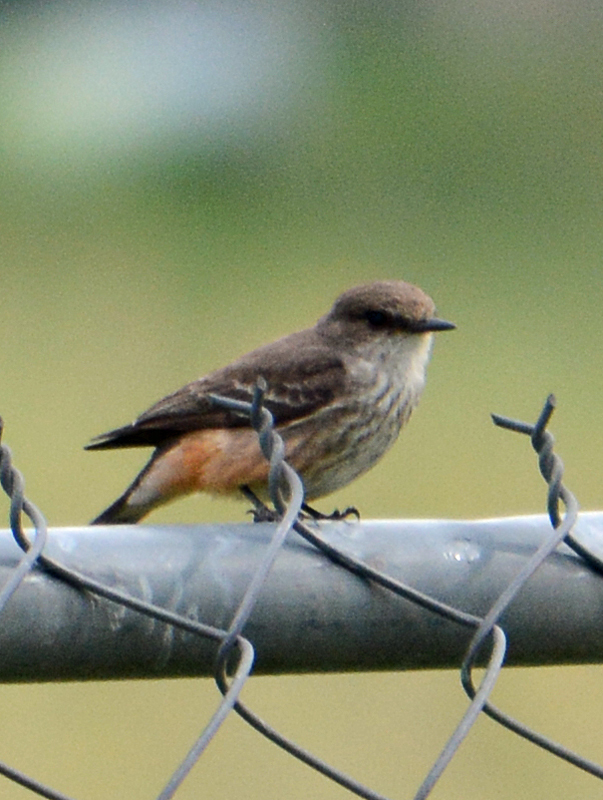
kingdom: Animalia
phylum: Chordata
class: Aves
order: Passeriformes
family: Tyrannidae
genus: Pyrocephalus
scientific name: Pyrocephalus rubinus
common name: Vermilion flycatcher
